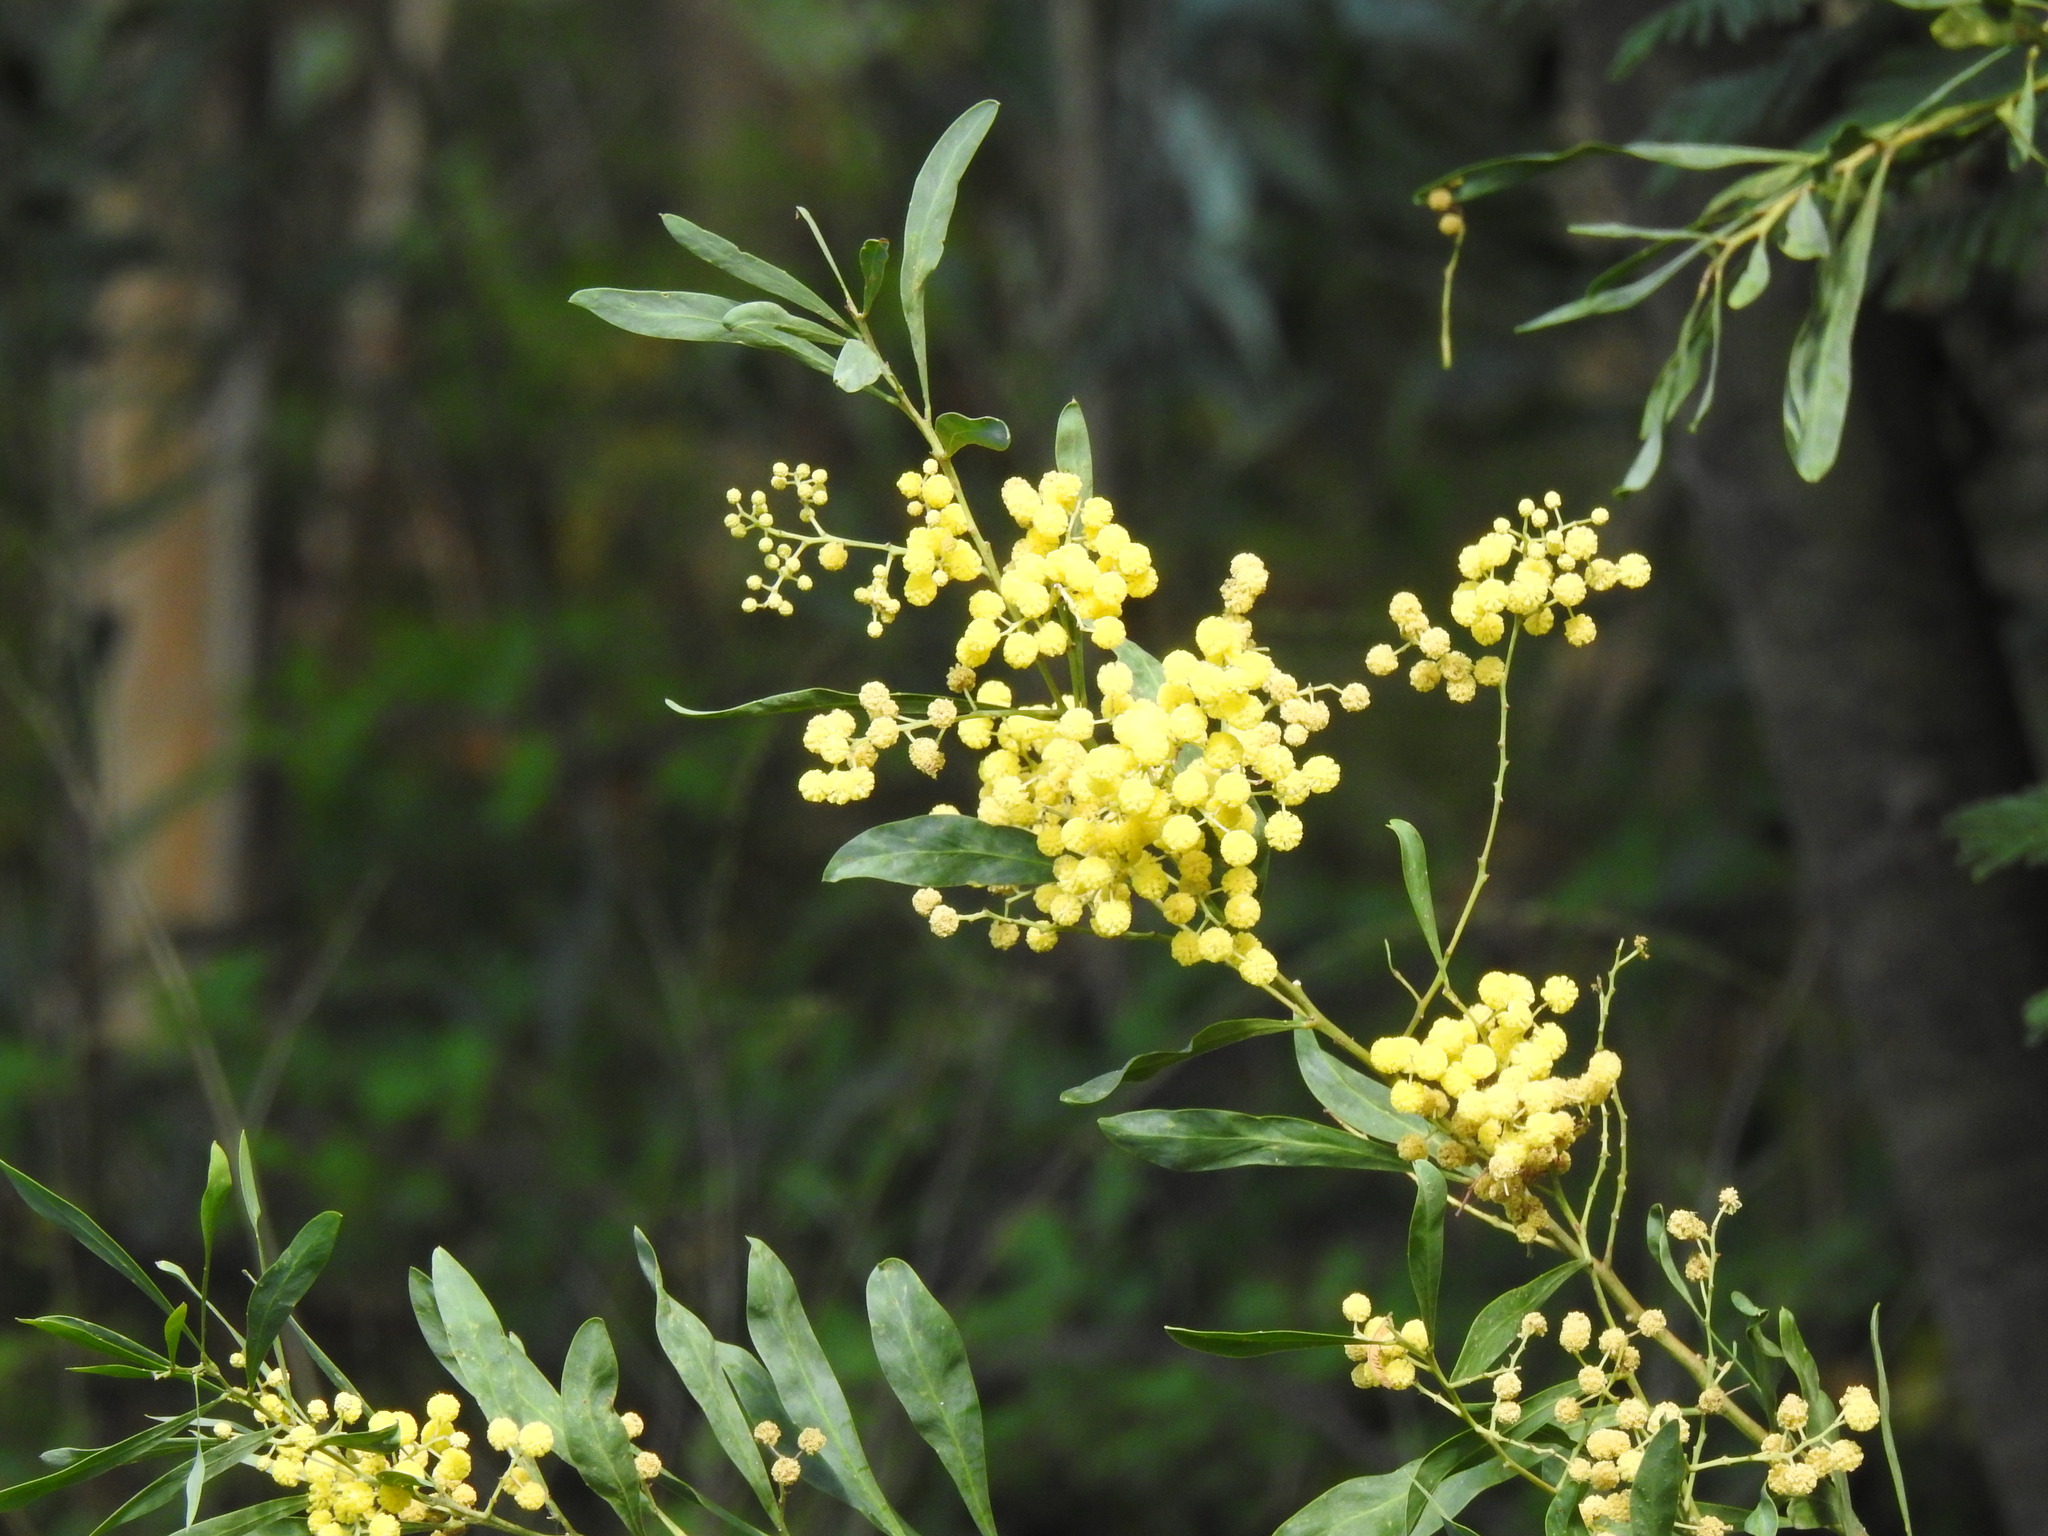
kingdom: Plantae
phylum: Tracheophyta
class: Magnoliopsida
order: Fabales
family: Fabaceae
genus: Acacia
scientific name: Acacia provincialis
